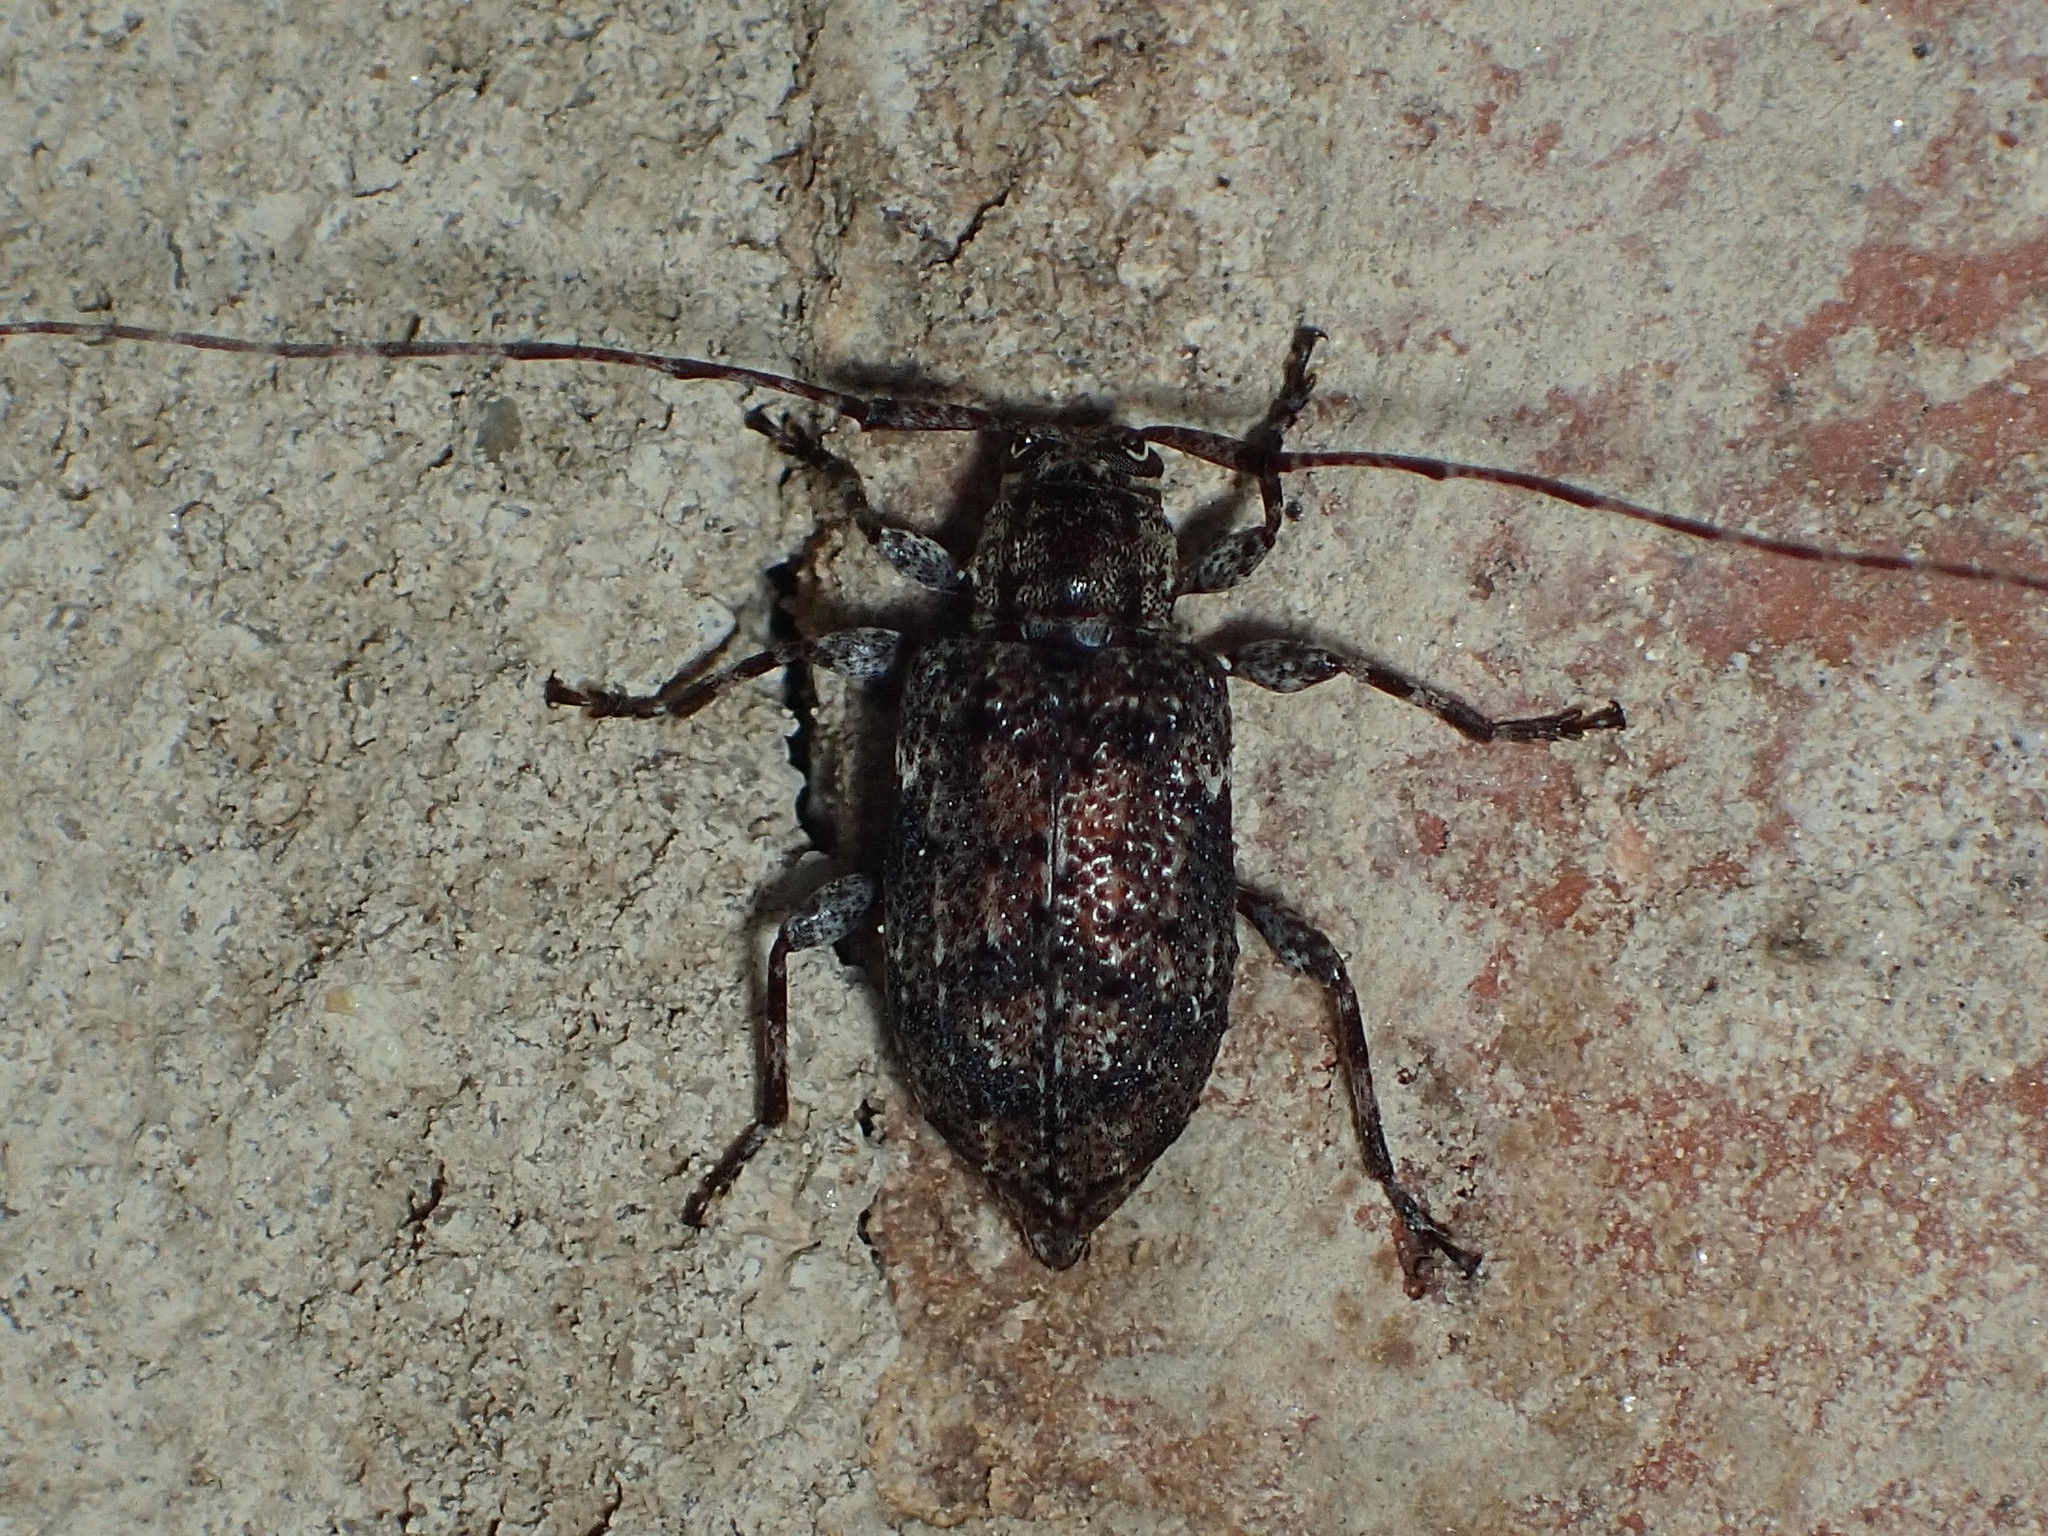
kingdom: Animalia
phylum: Arthropoda
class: Insecta
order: Coleoptera
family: Cerambycidae
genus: Astylopsis
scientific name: Astylopsis sexguttata
